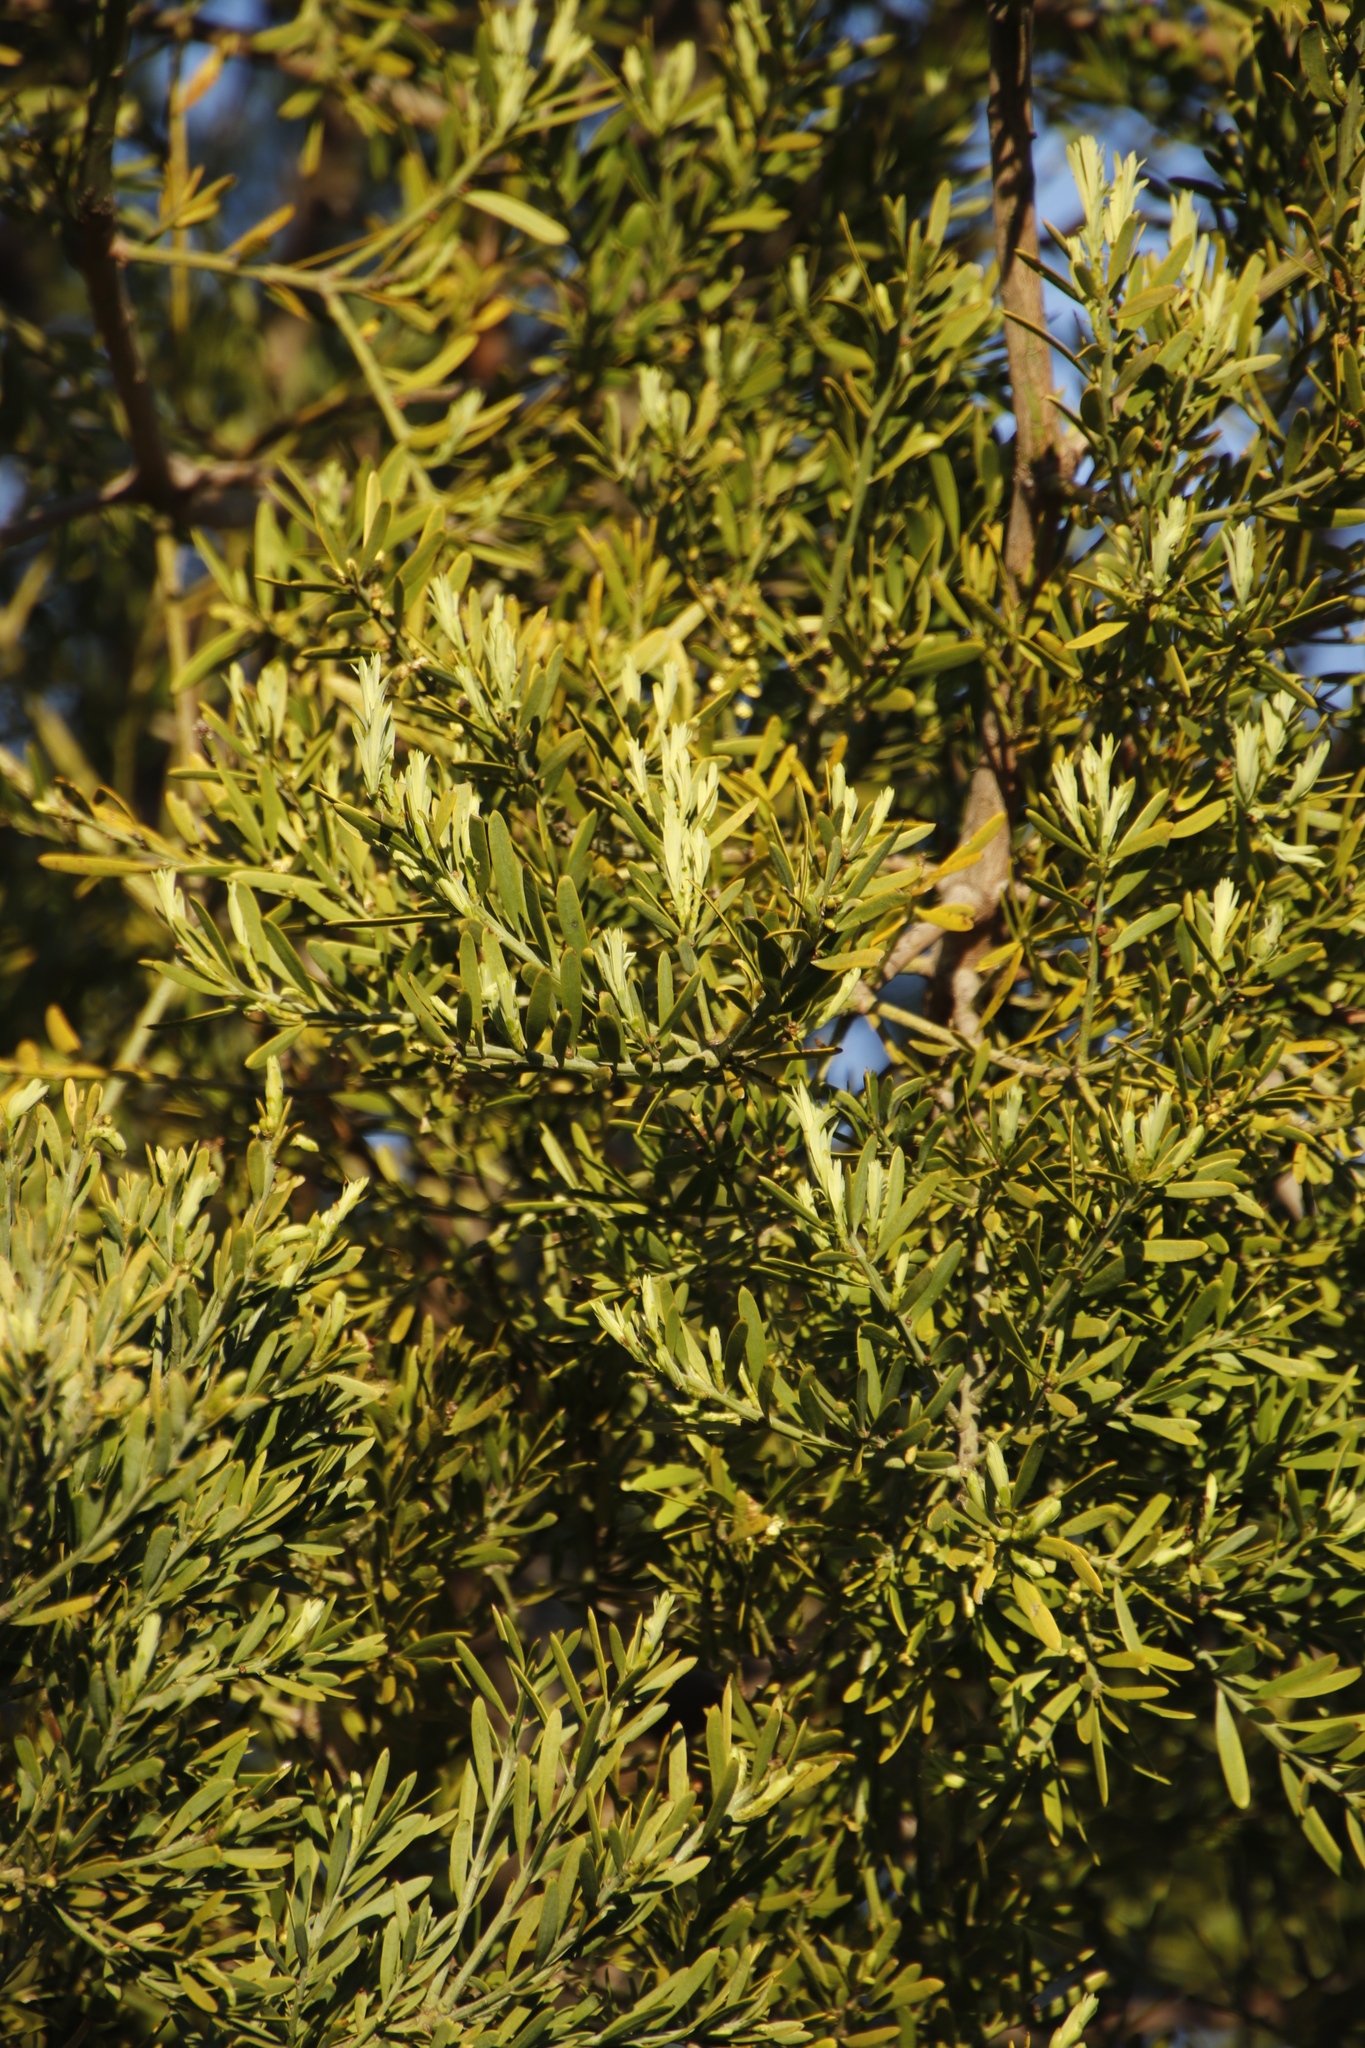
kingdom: Plantae
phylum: Tracheophyta
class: Pinopsida
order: Pinales
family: Podocarpaceae
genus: Afrocarpus
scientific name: Afrocarpus falcatus
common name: Bastard yellowwood
